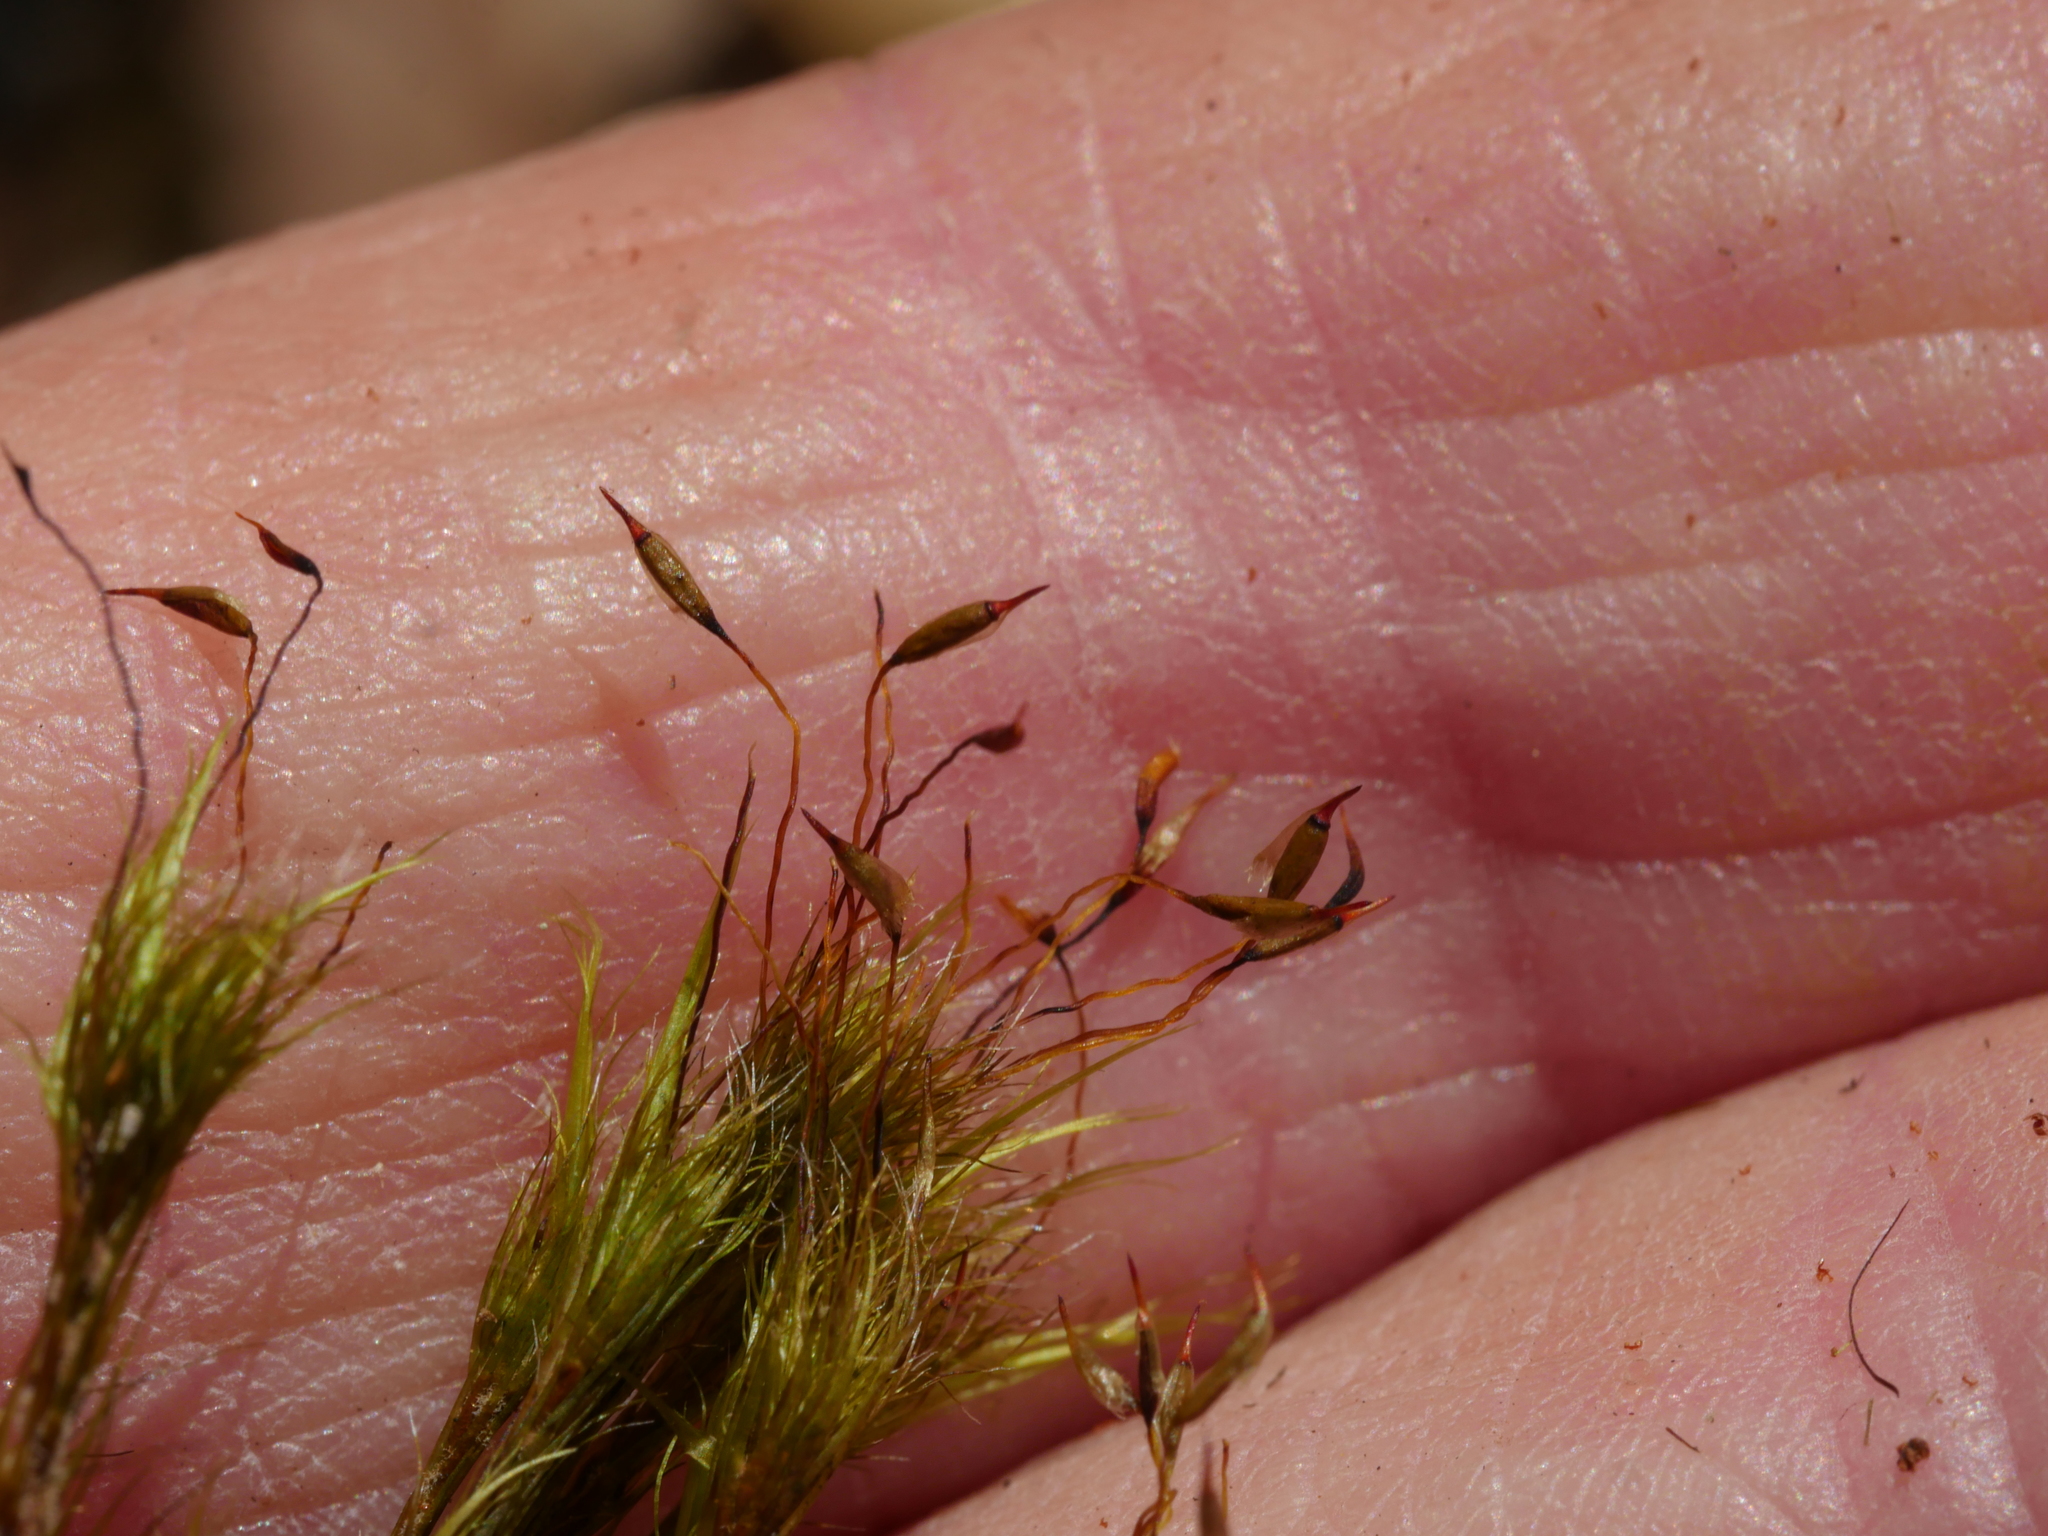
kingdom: Plantae
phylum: Bryophyta
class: Bryopsida
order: Dicranales
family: Leucobryaceae
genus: Campylopus
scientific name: Campylopus clavatus
